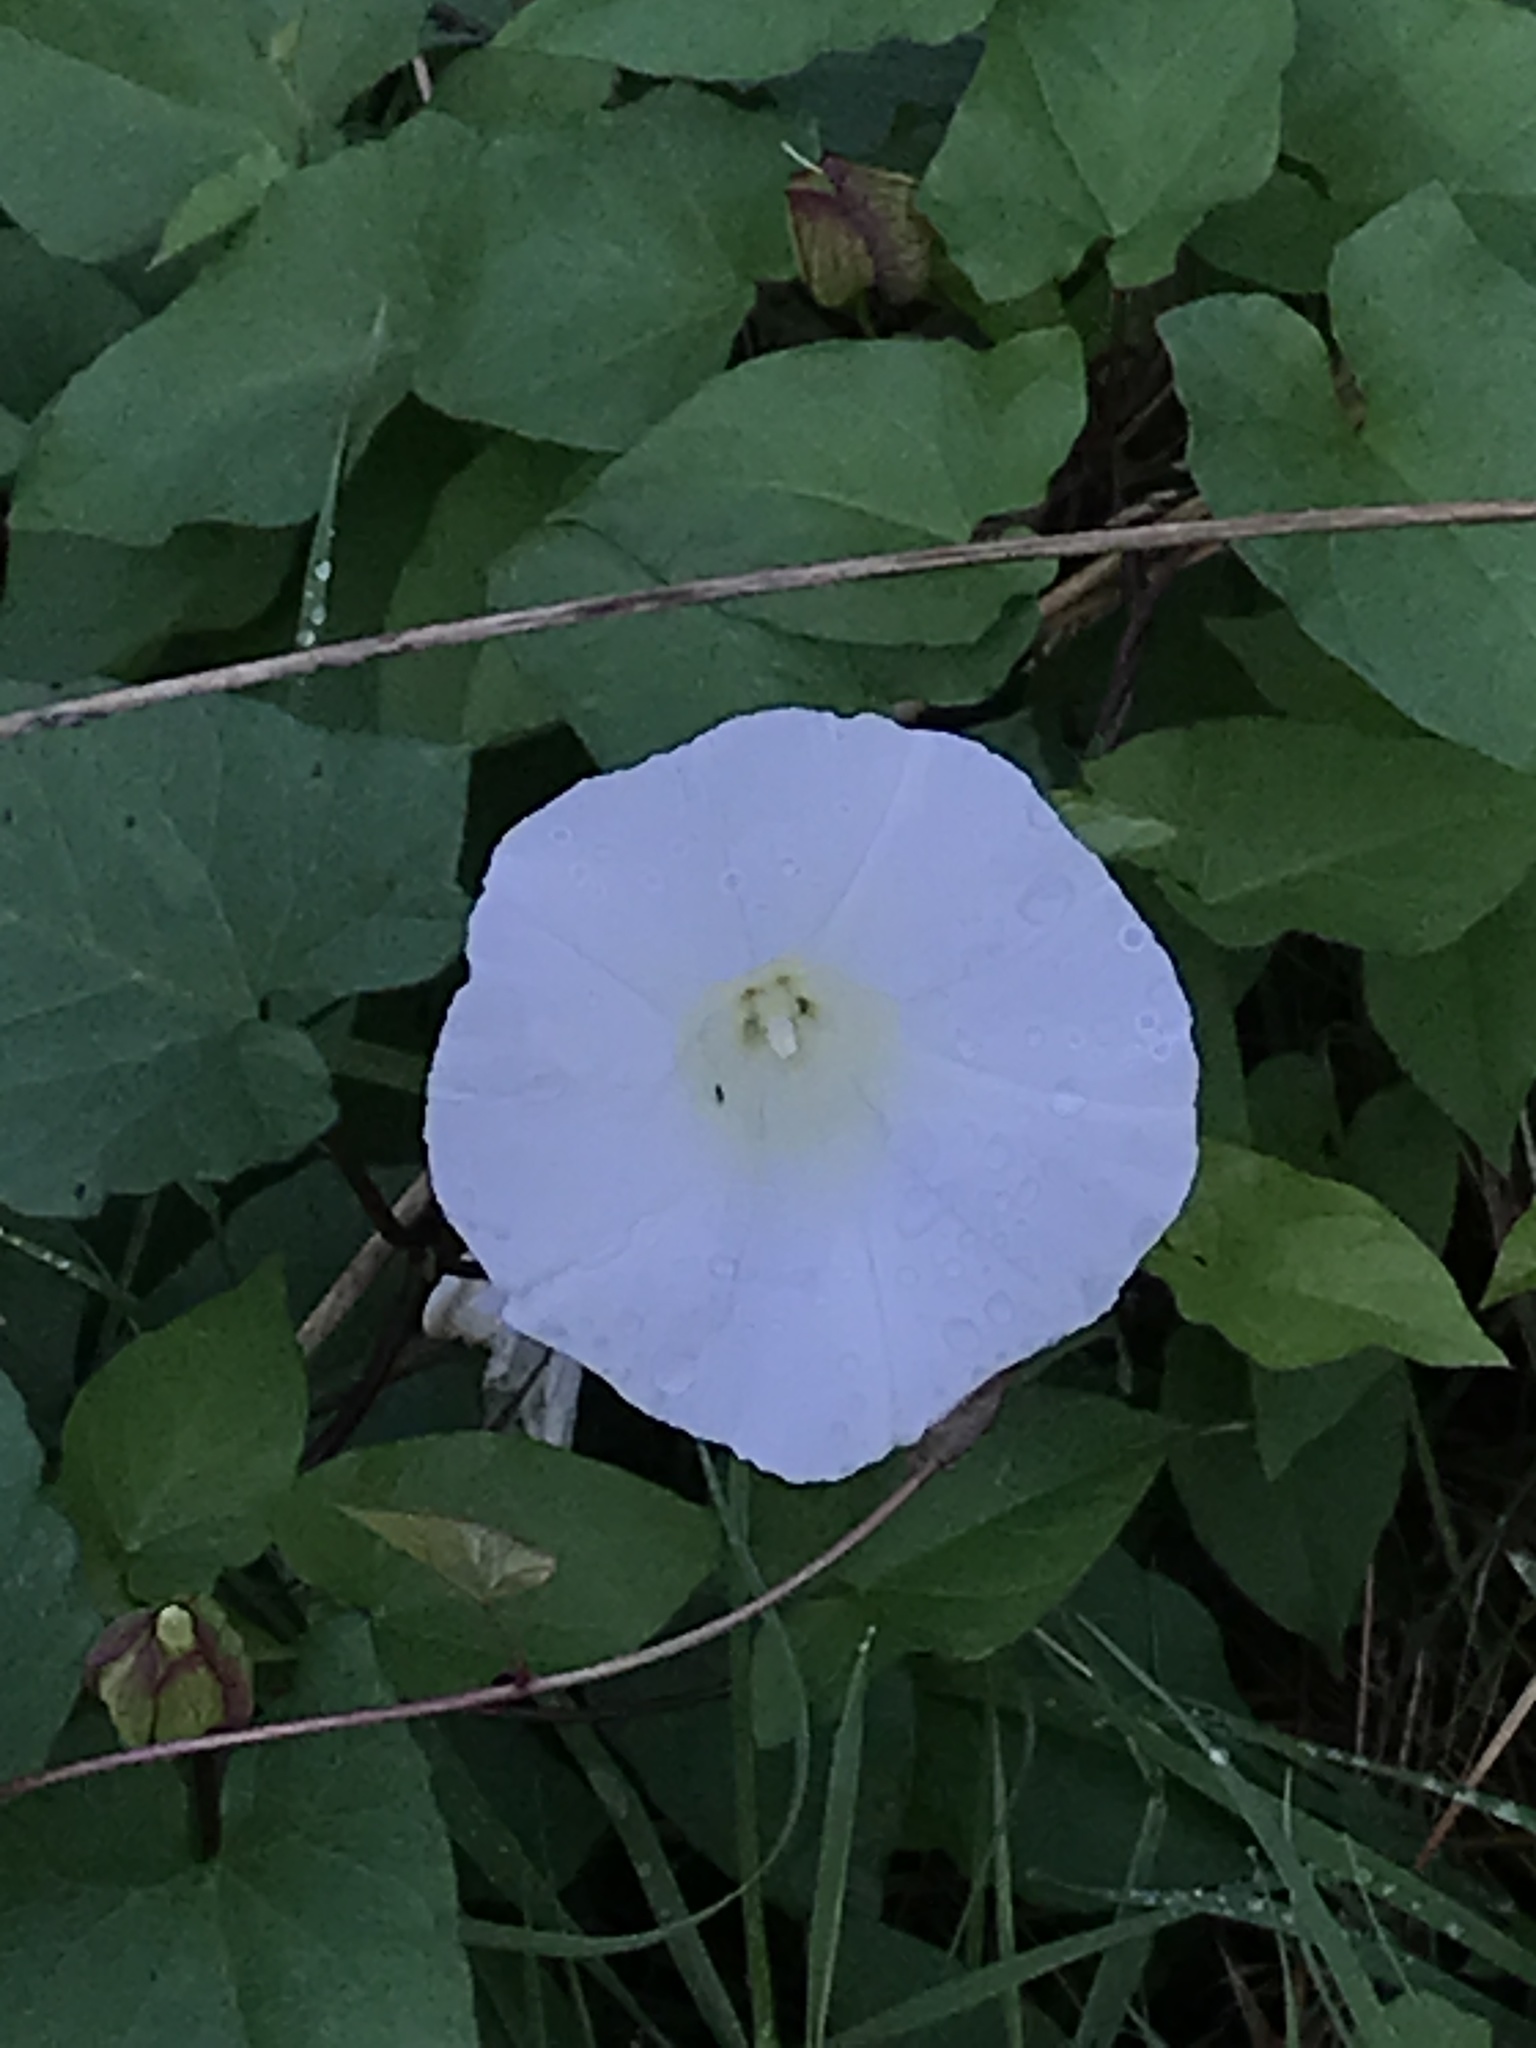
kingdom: Plantae
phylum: Tracheophyta
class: Magnoliopsida
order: Solanales
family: Convolvulaceae
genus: Calystegia
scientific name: Calystegia silvatica
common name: Large bindweed
